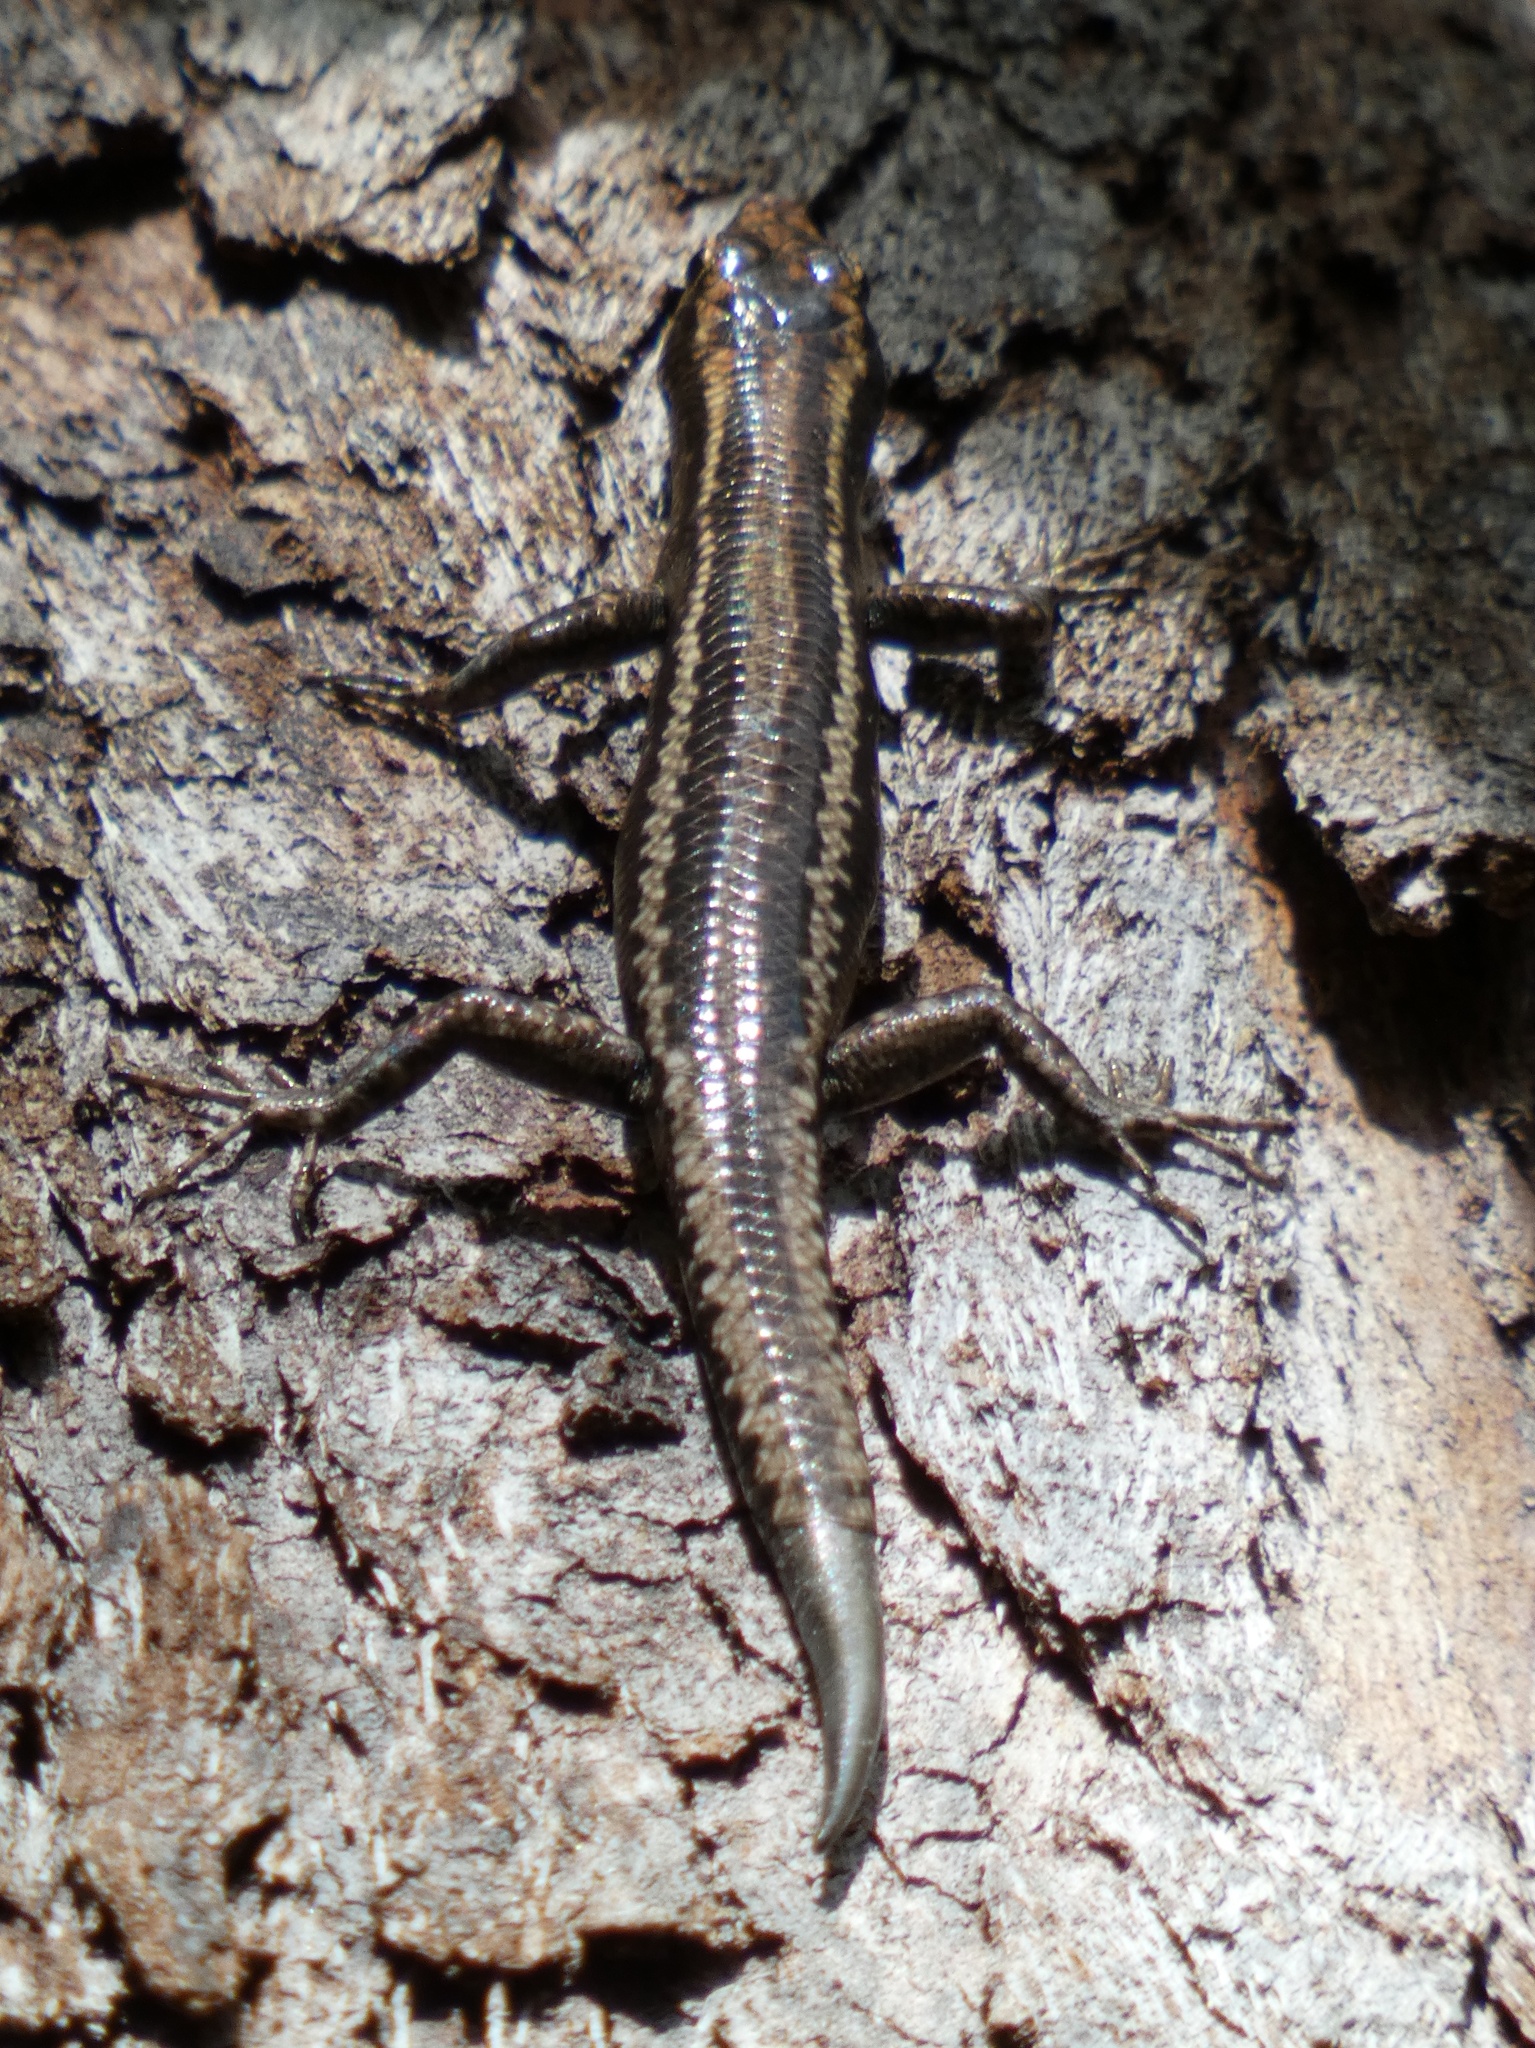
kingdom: Animalia
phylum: Chordata
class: Squamata
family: Scincidae
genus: Cryptoblepharus
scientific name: Cryptoblepharus virgatus
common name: Cream-striped shinning-skink
